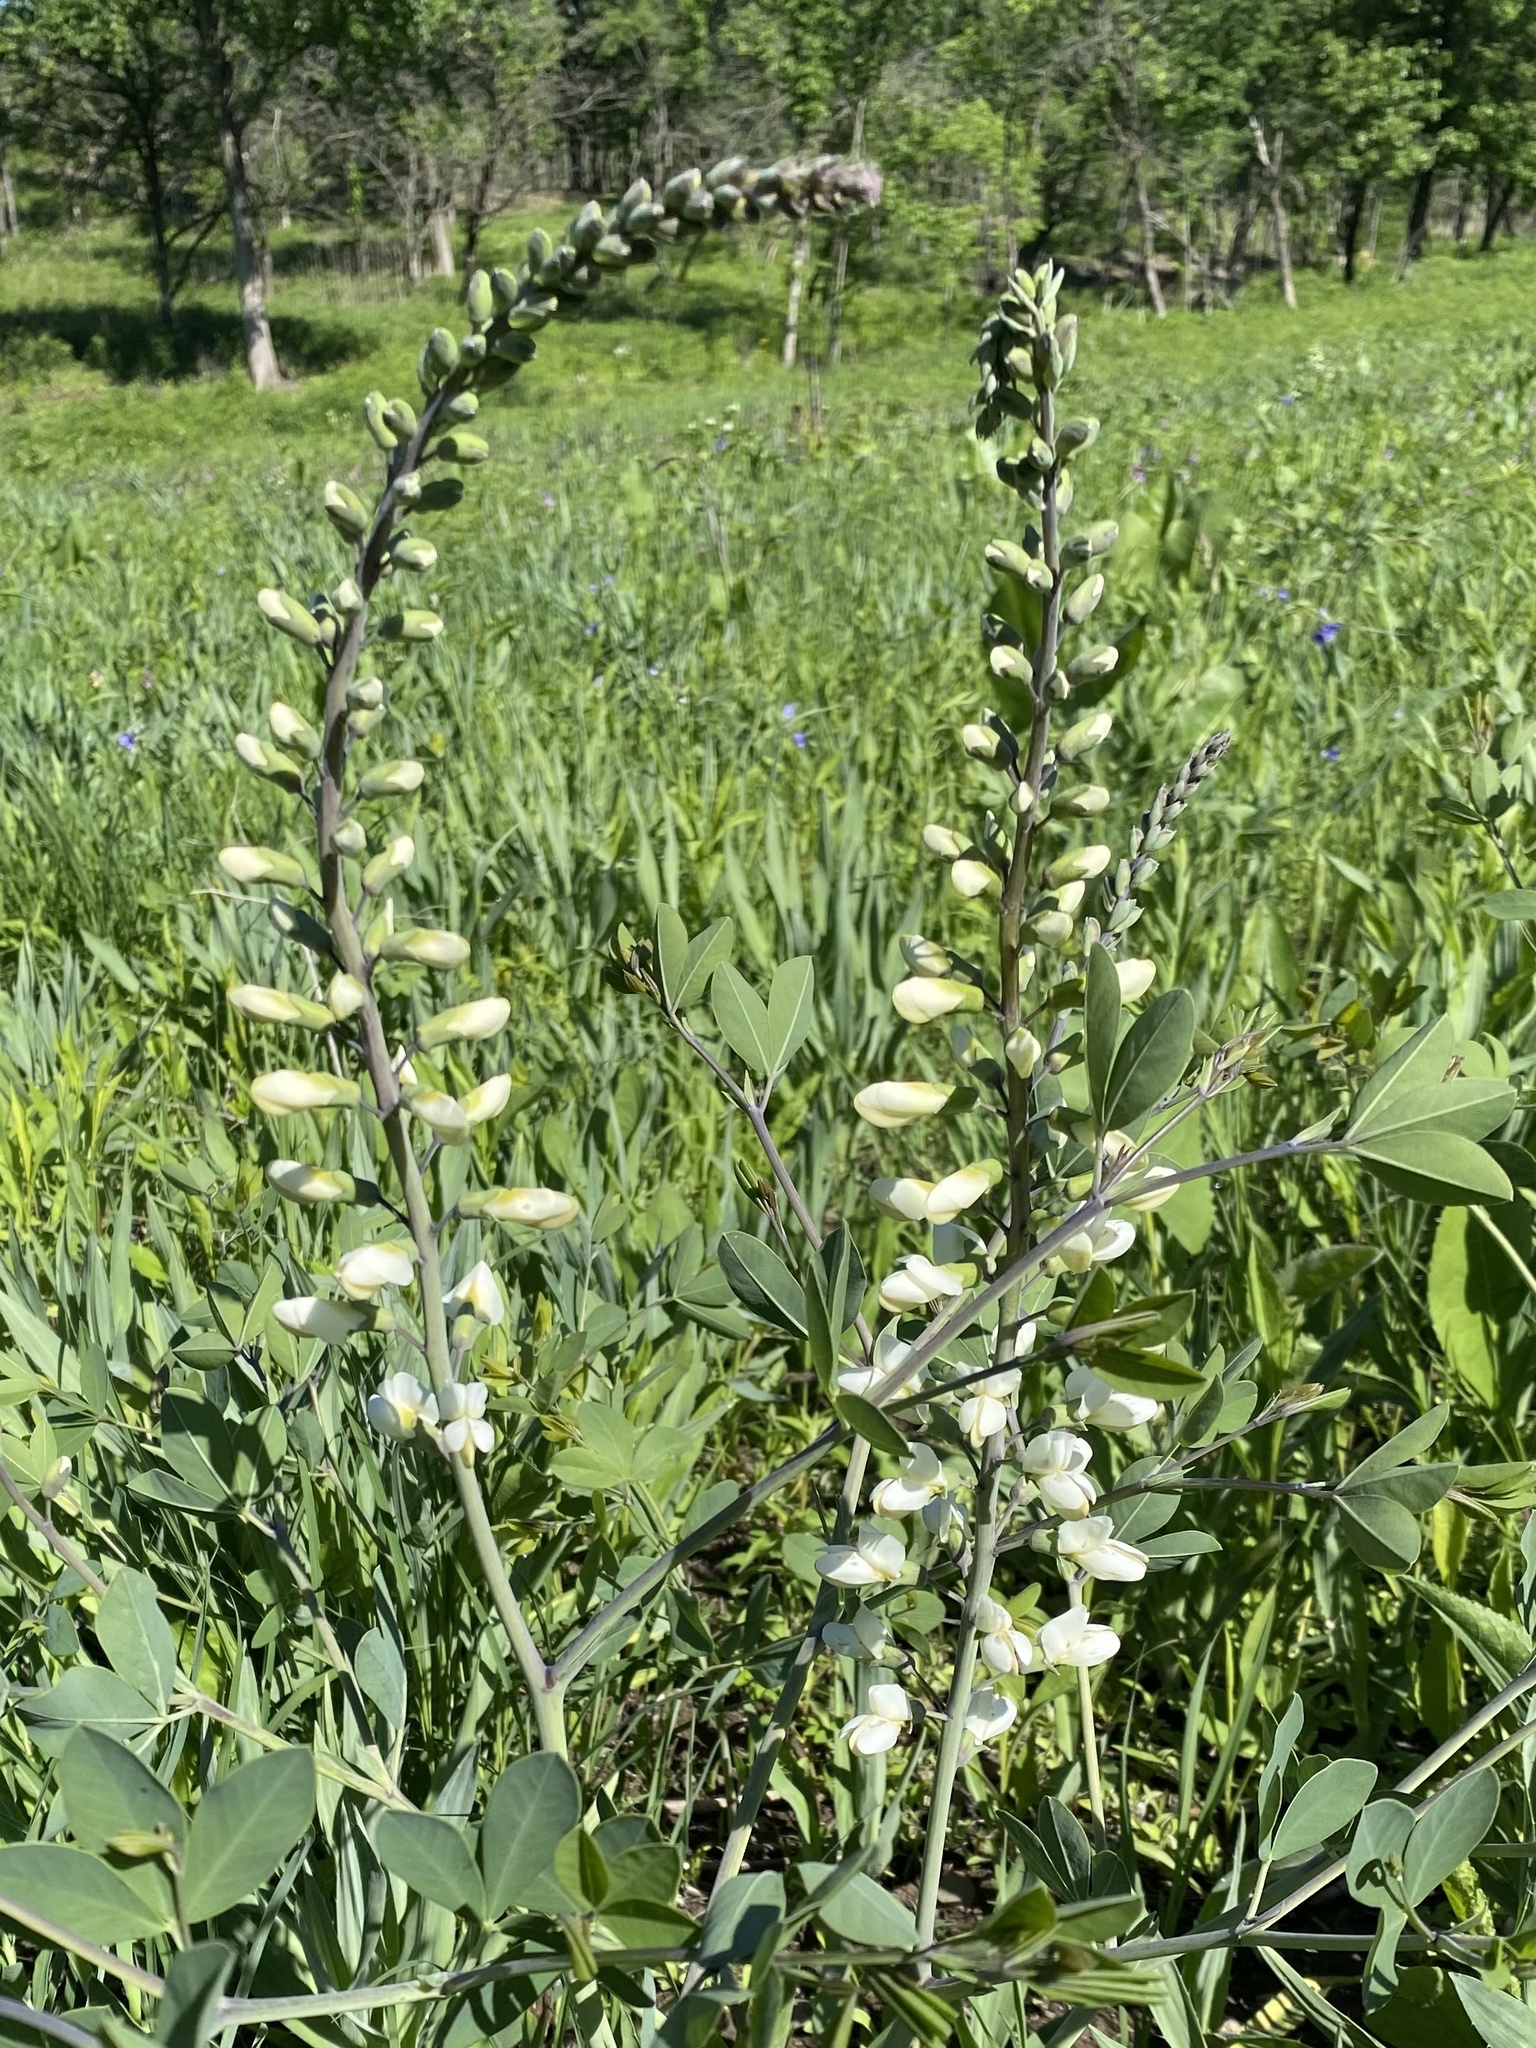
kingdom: Plantae
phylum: Tracheophyta
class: Magnoliopsida
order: Fabales
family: Fabaceae
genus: Baptisia
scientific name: Baptisia alba
